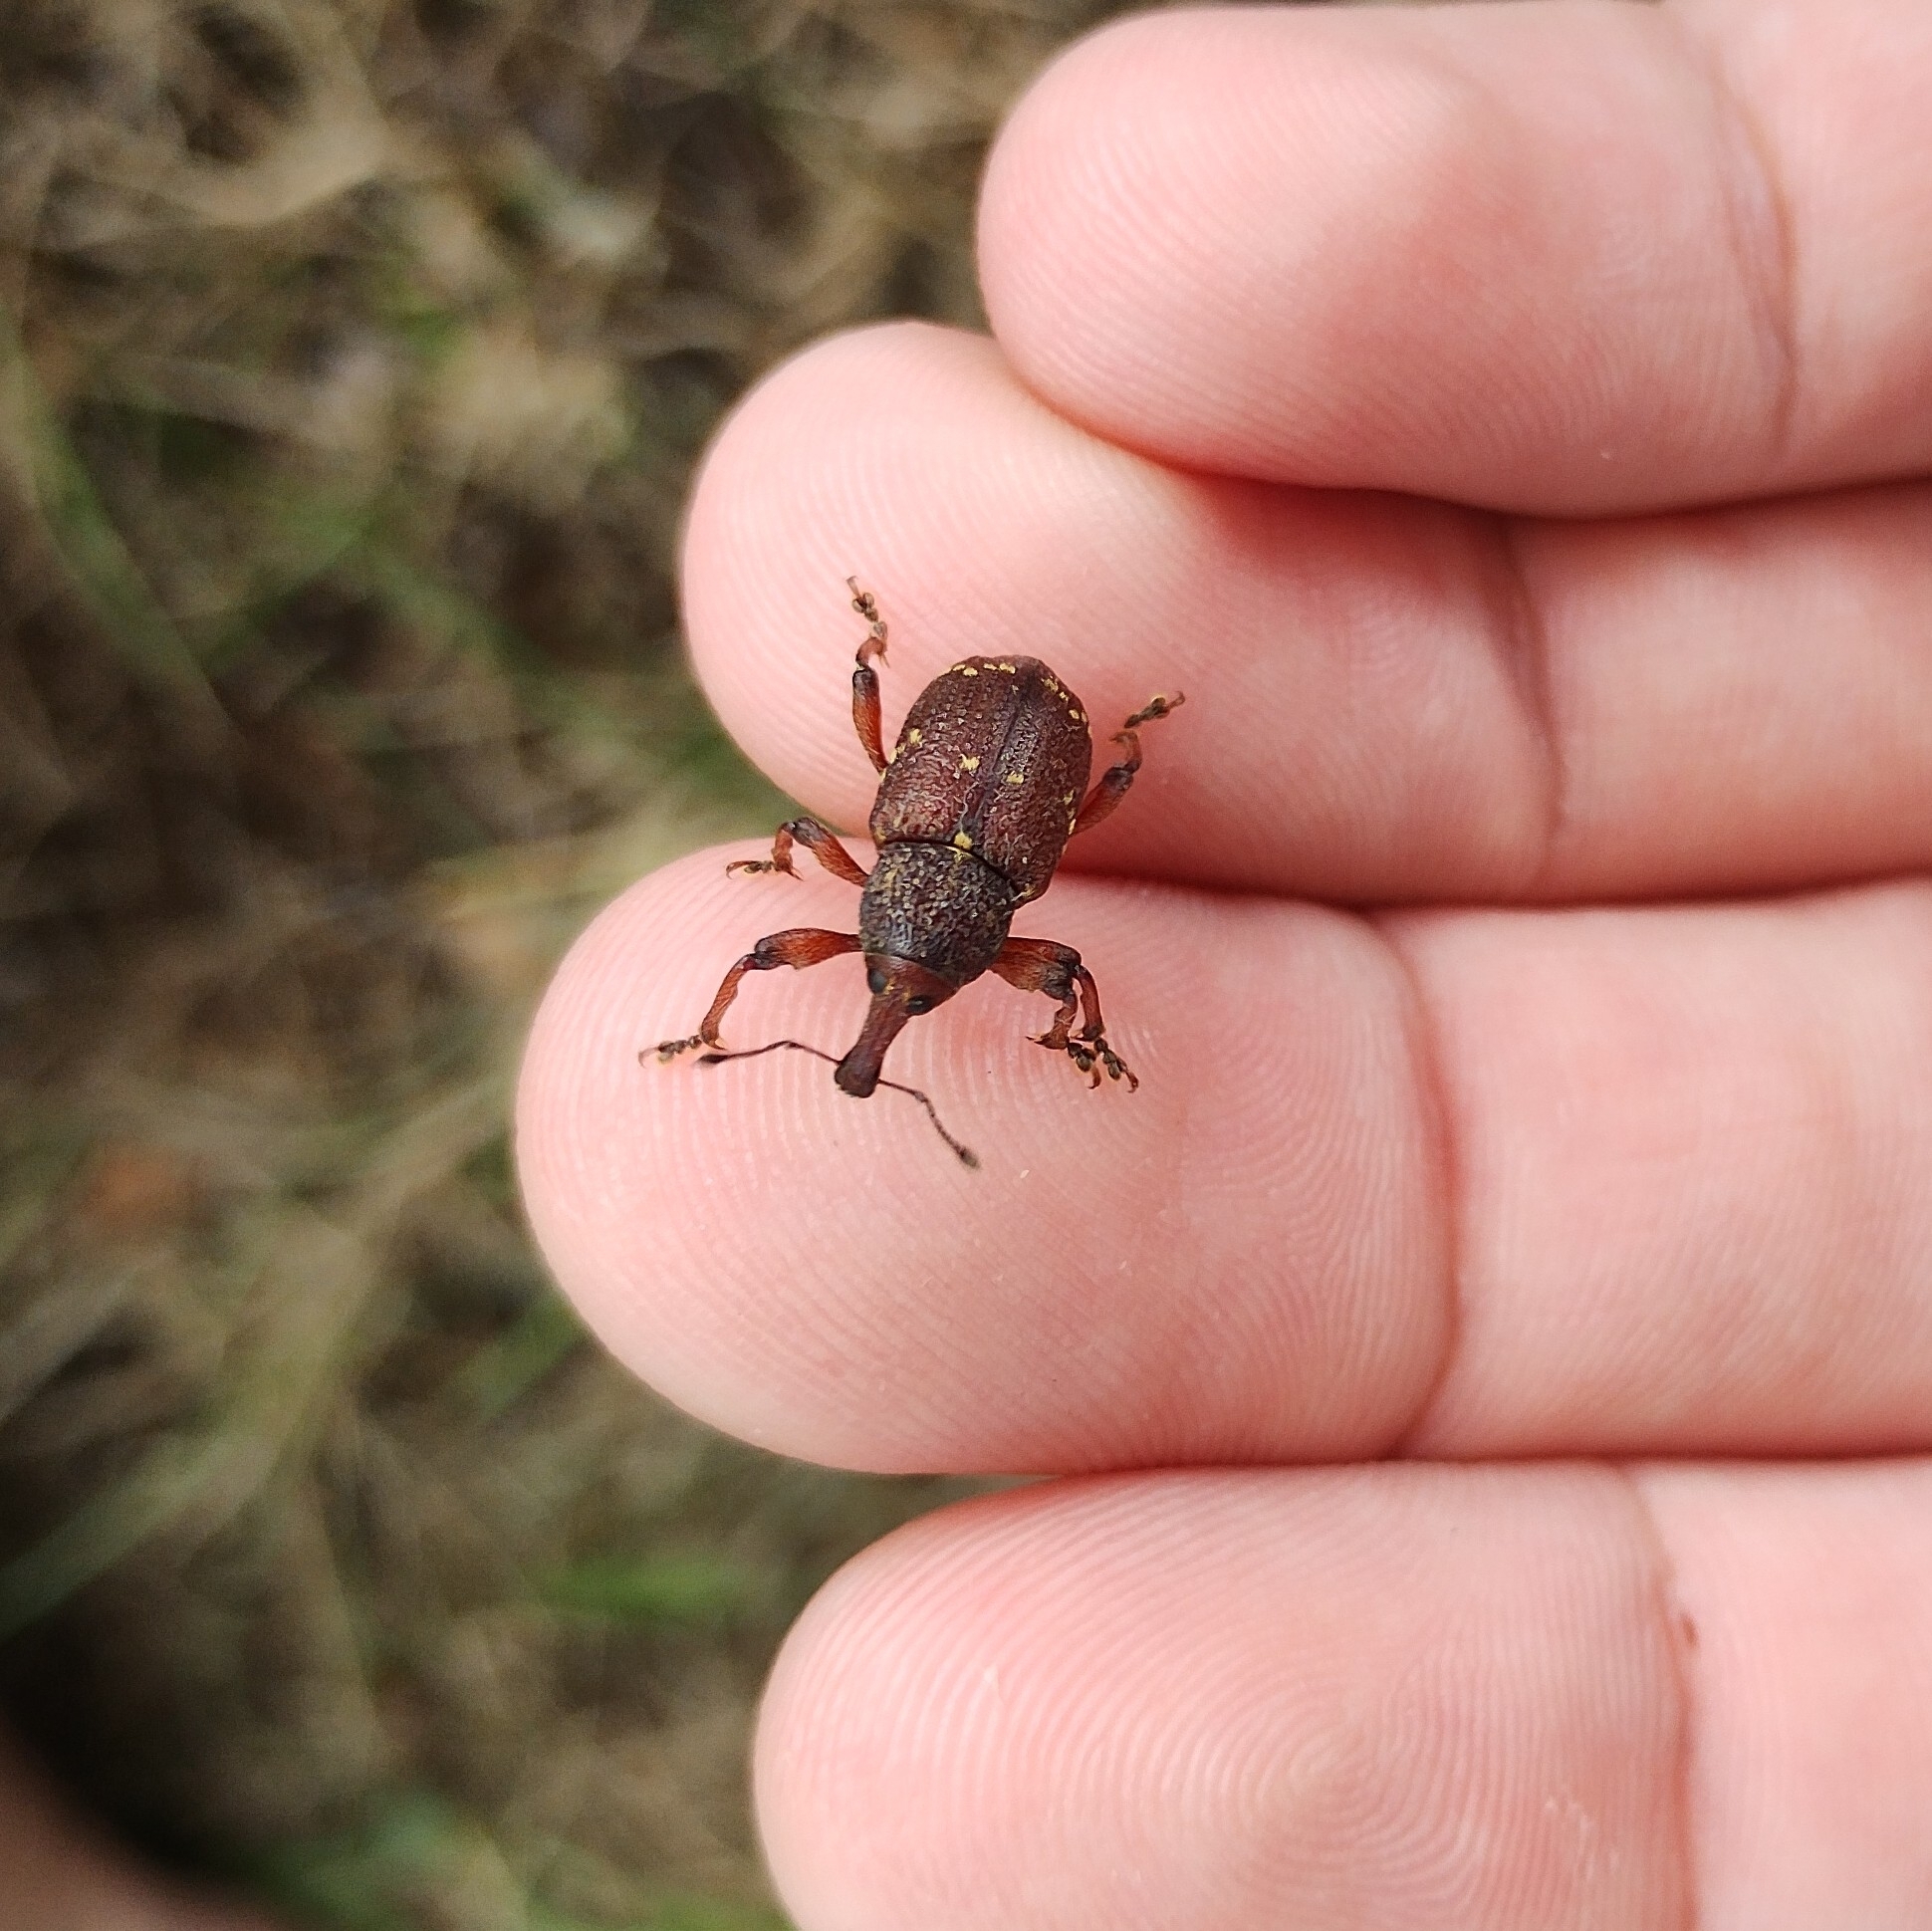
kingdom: Animalia
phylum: Arthropoda
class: Insecta
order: Coleoptera
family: Curculionidae
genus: Hylobius
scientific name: Hylobius transversovittatus
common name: Weevil
